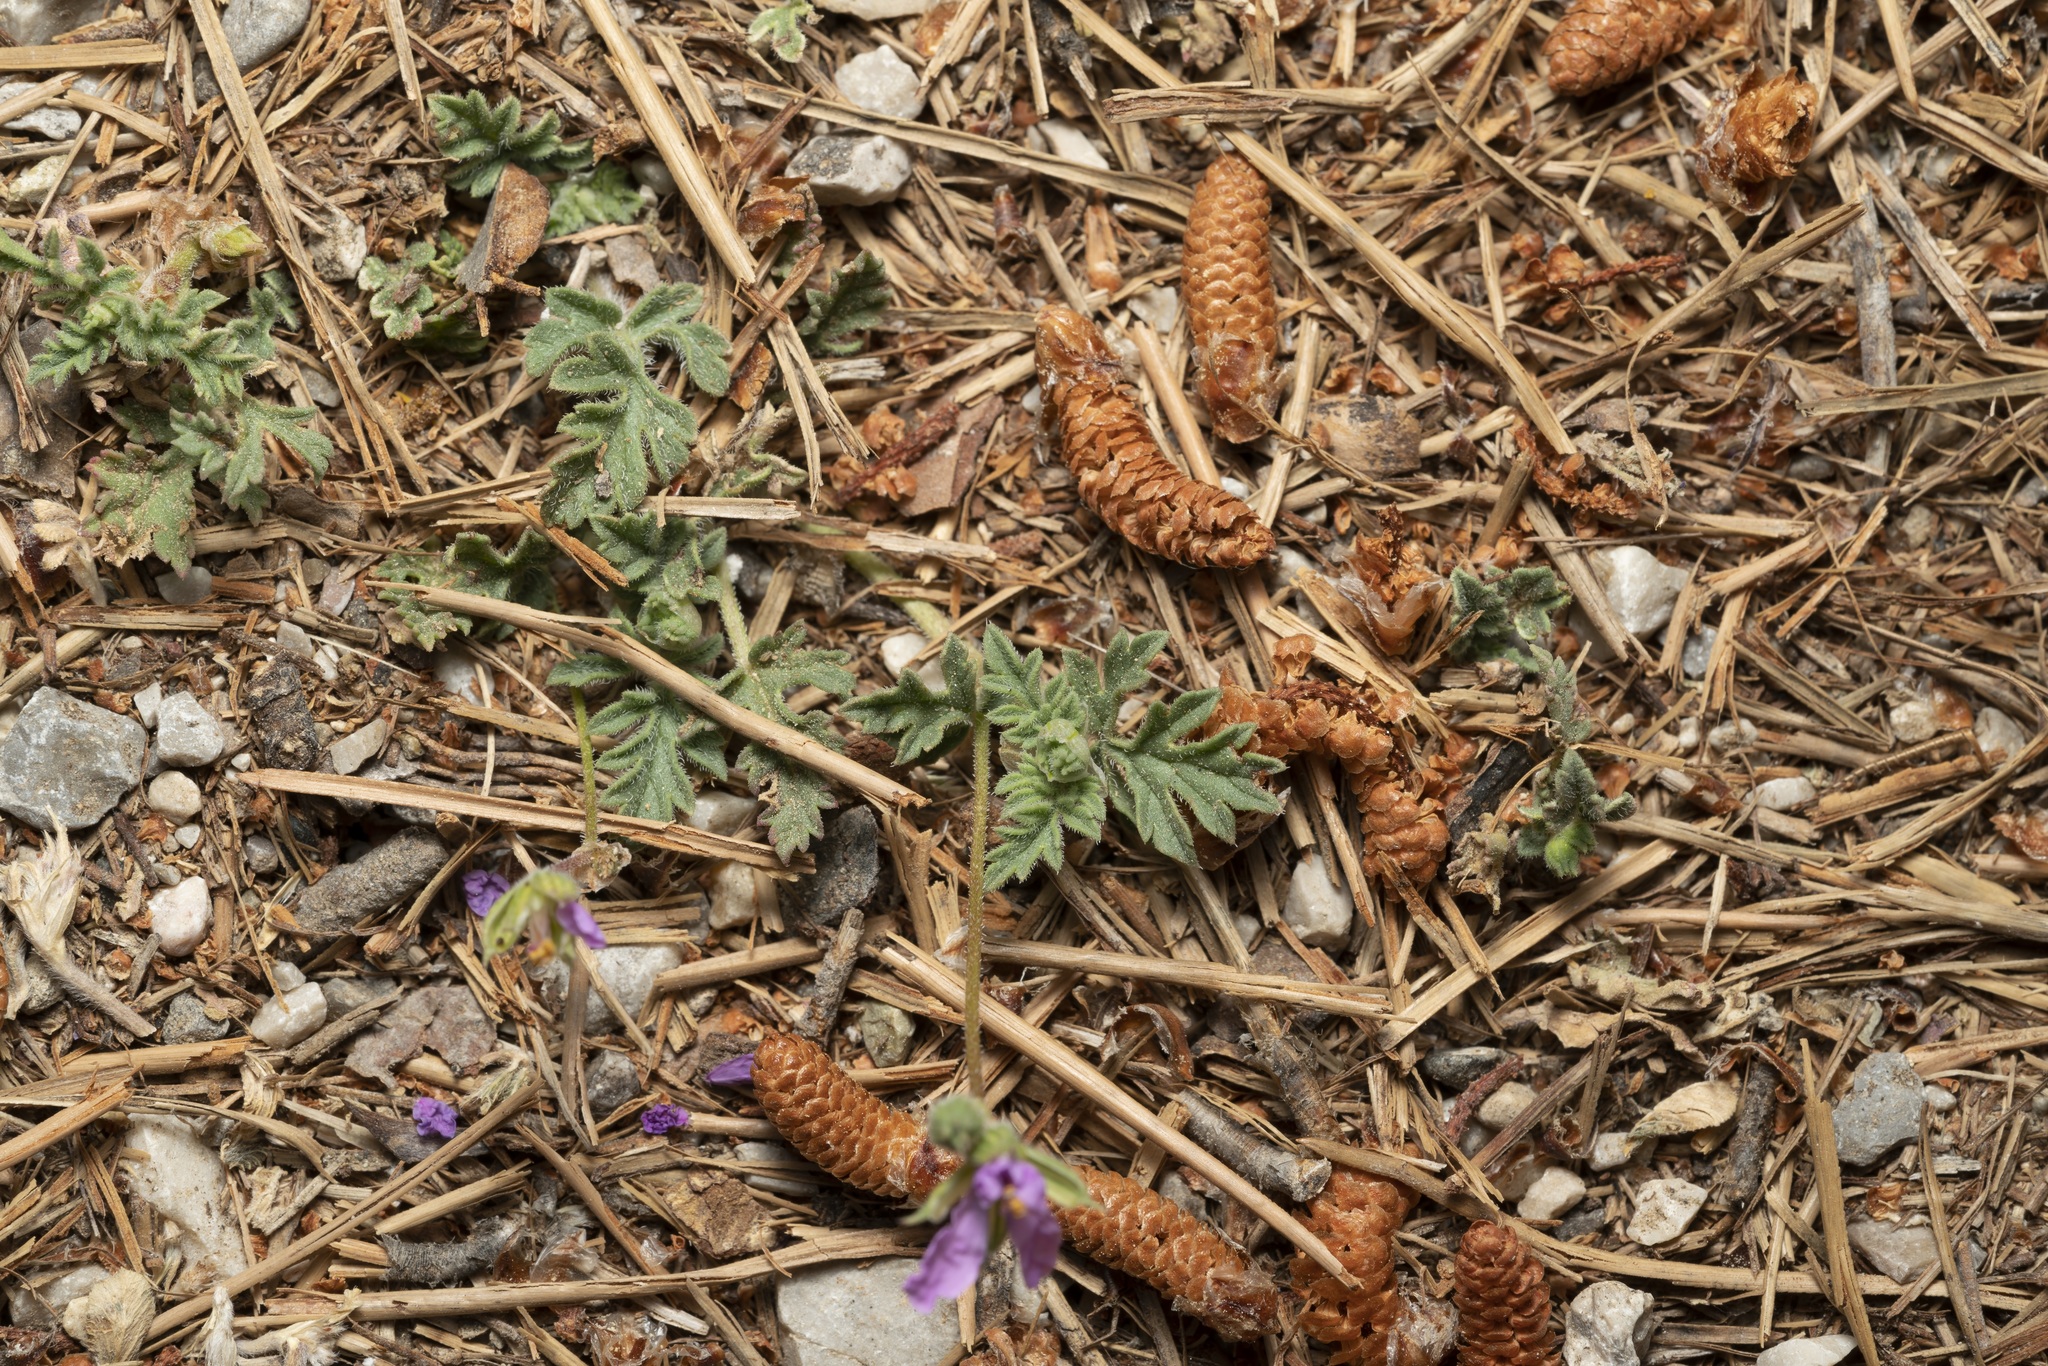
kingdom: Plantae
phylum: Tracheophyta
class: Magnoliopsida
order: Geraniales
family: Geraniaceae
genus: Erodium
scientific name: Erodium laciniatum
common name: Cutleaf stork's bill
